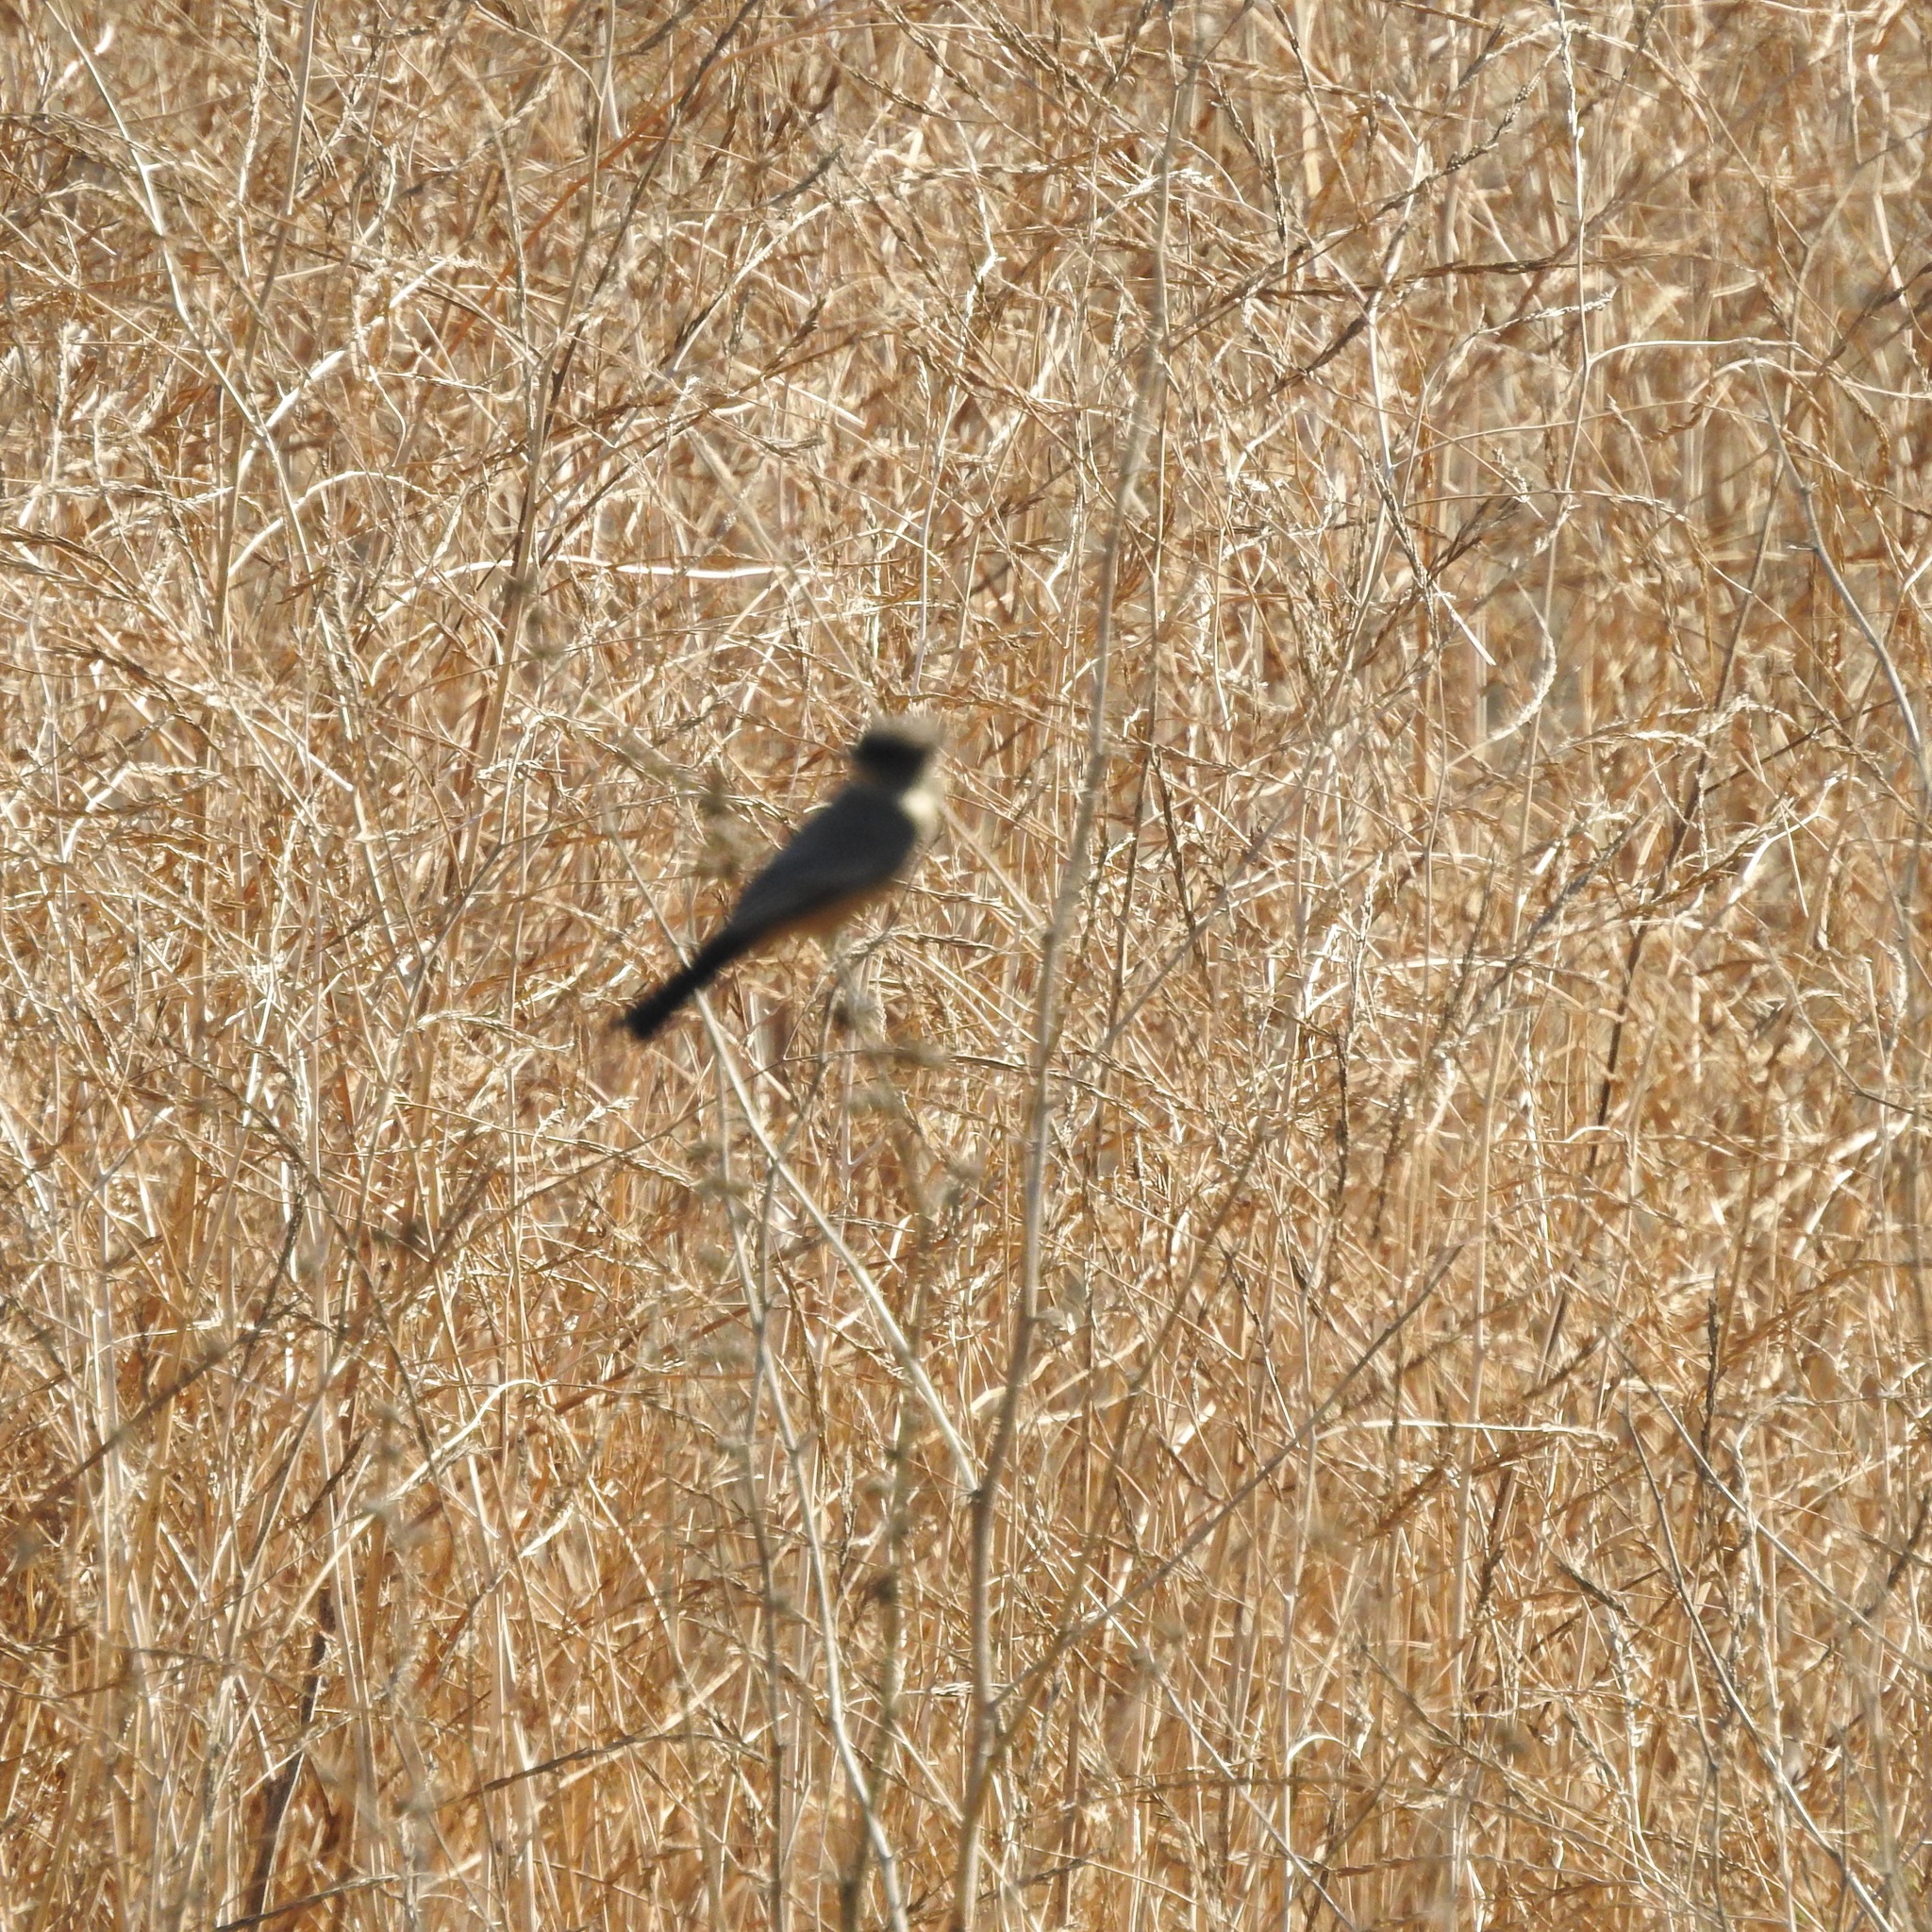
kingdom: Animalia
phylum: Chordata
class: Aves
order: Passeriformes
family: Tyrannidae
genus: Sayornis
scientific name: Sayornis saya
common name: Say's phoebe
